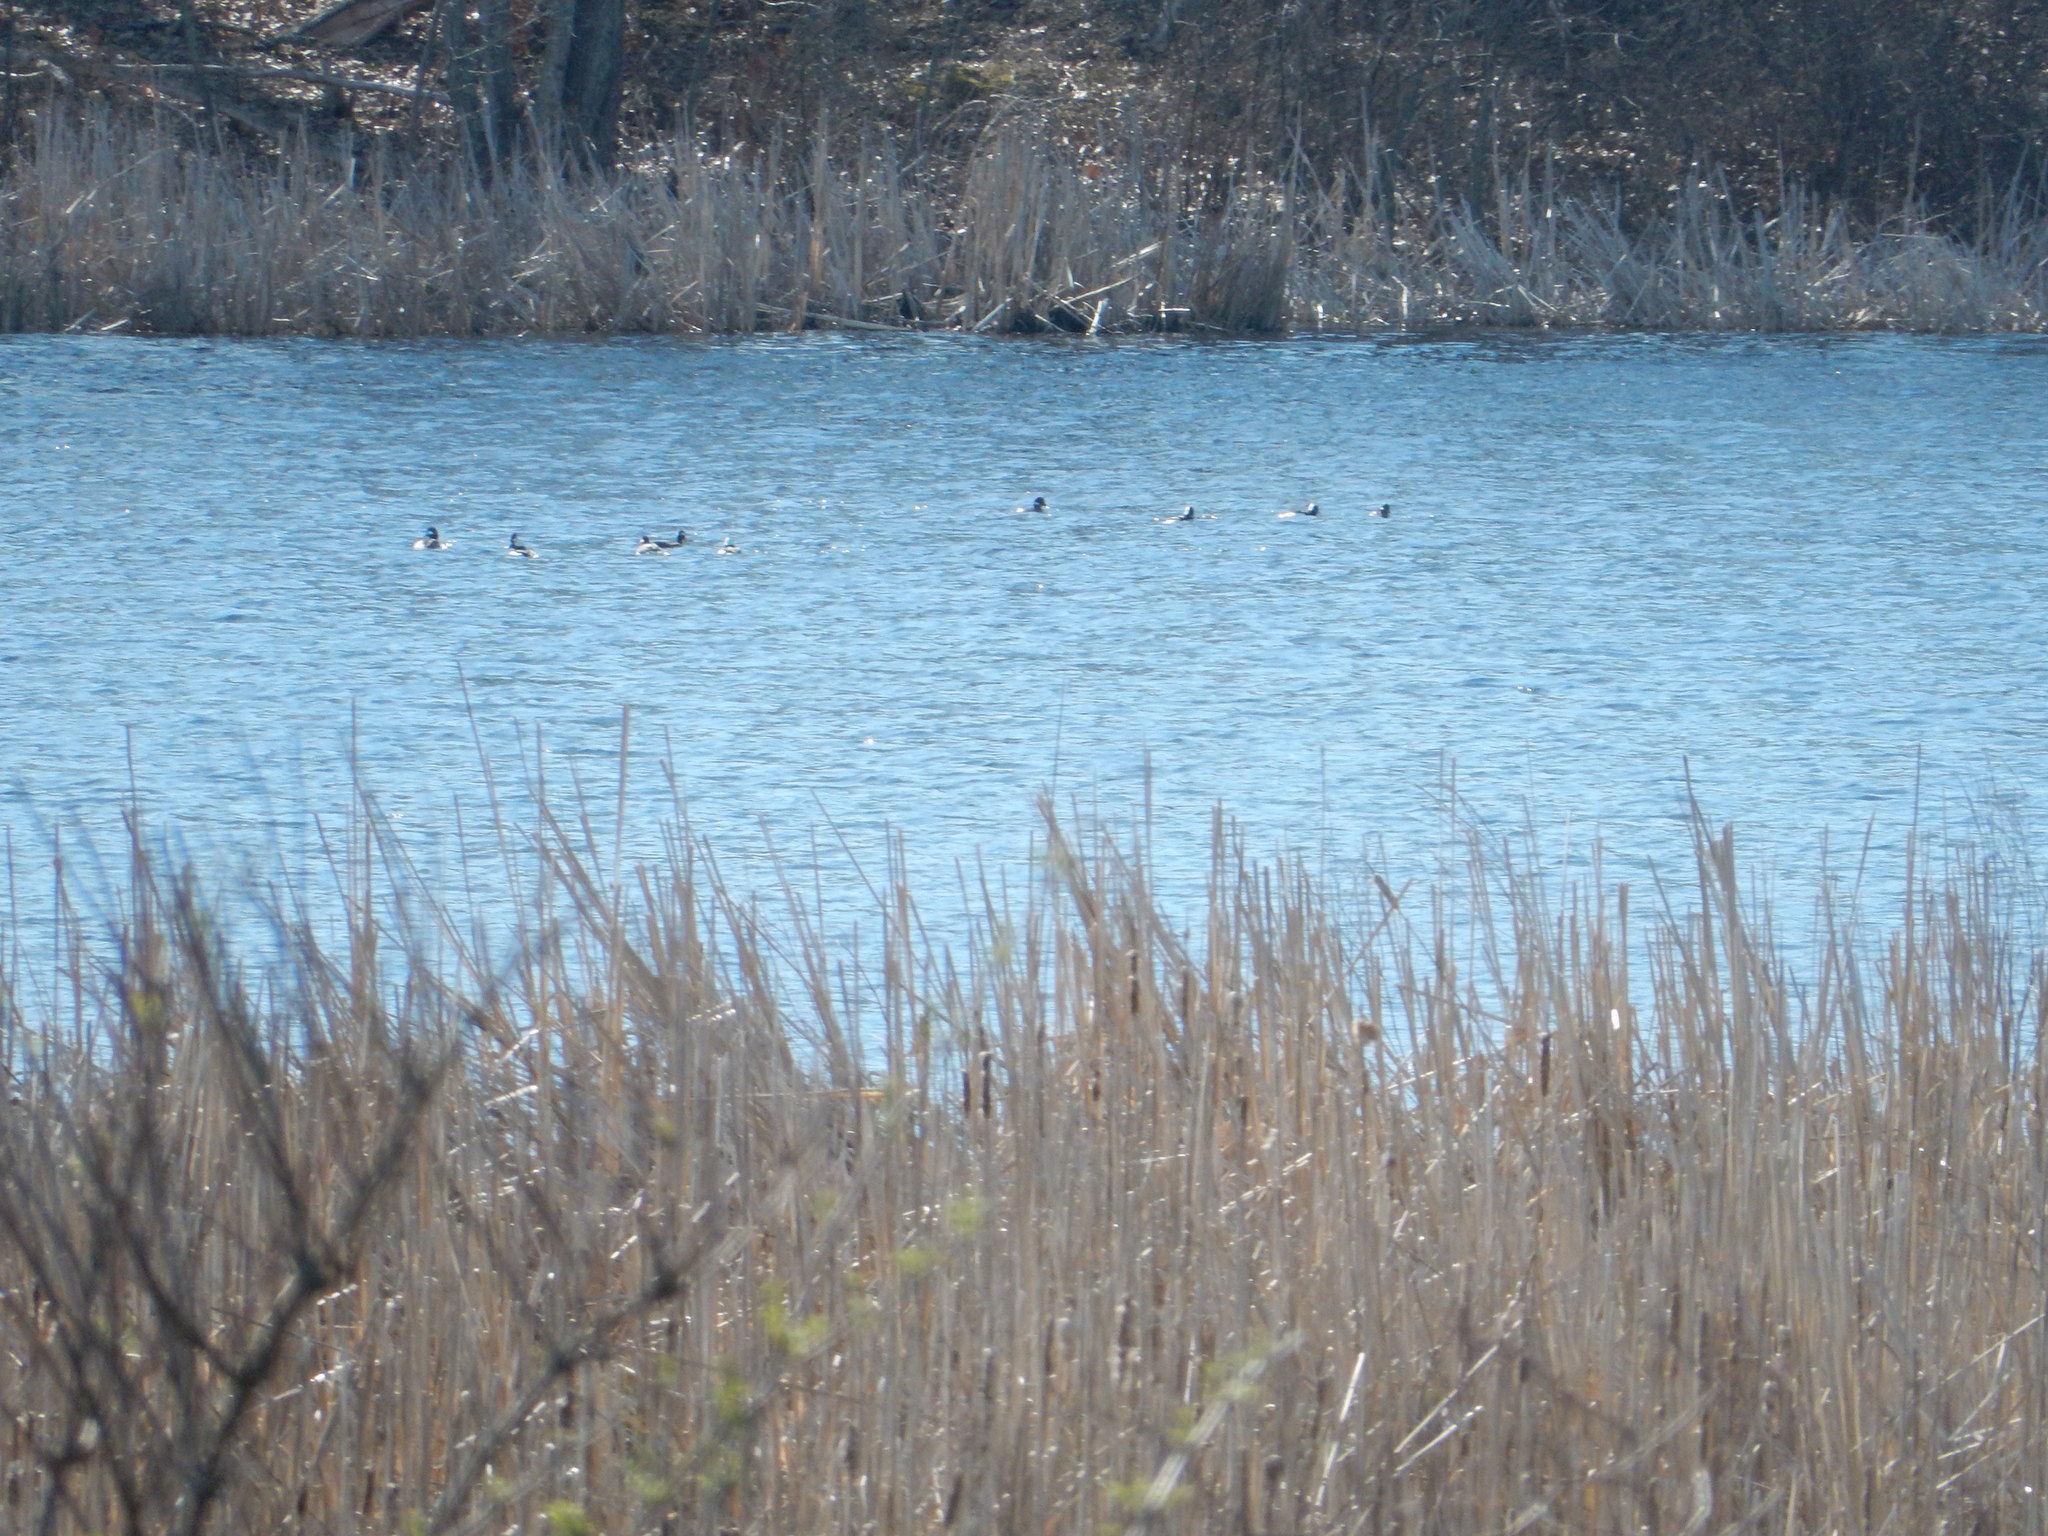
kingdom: Animalia
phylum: Chordata
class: Aves
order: Anseriformes
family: Anatidae
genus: Bucephala
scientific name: Bucephala albeola
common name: Bufflehead
